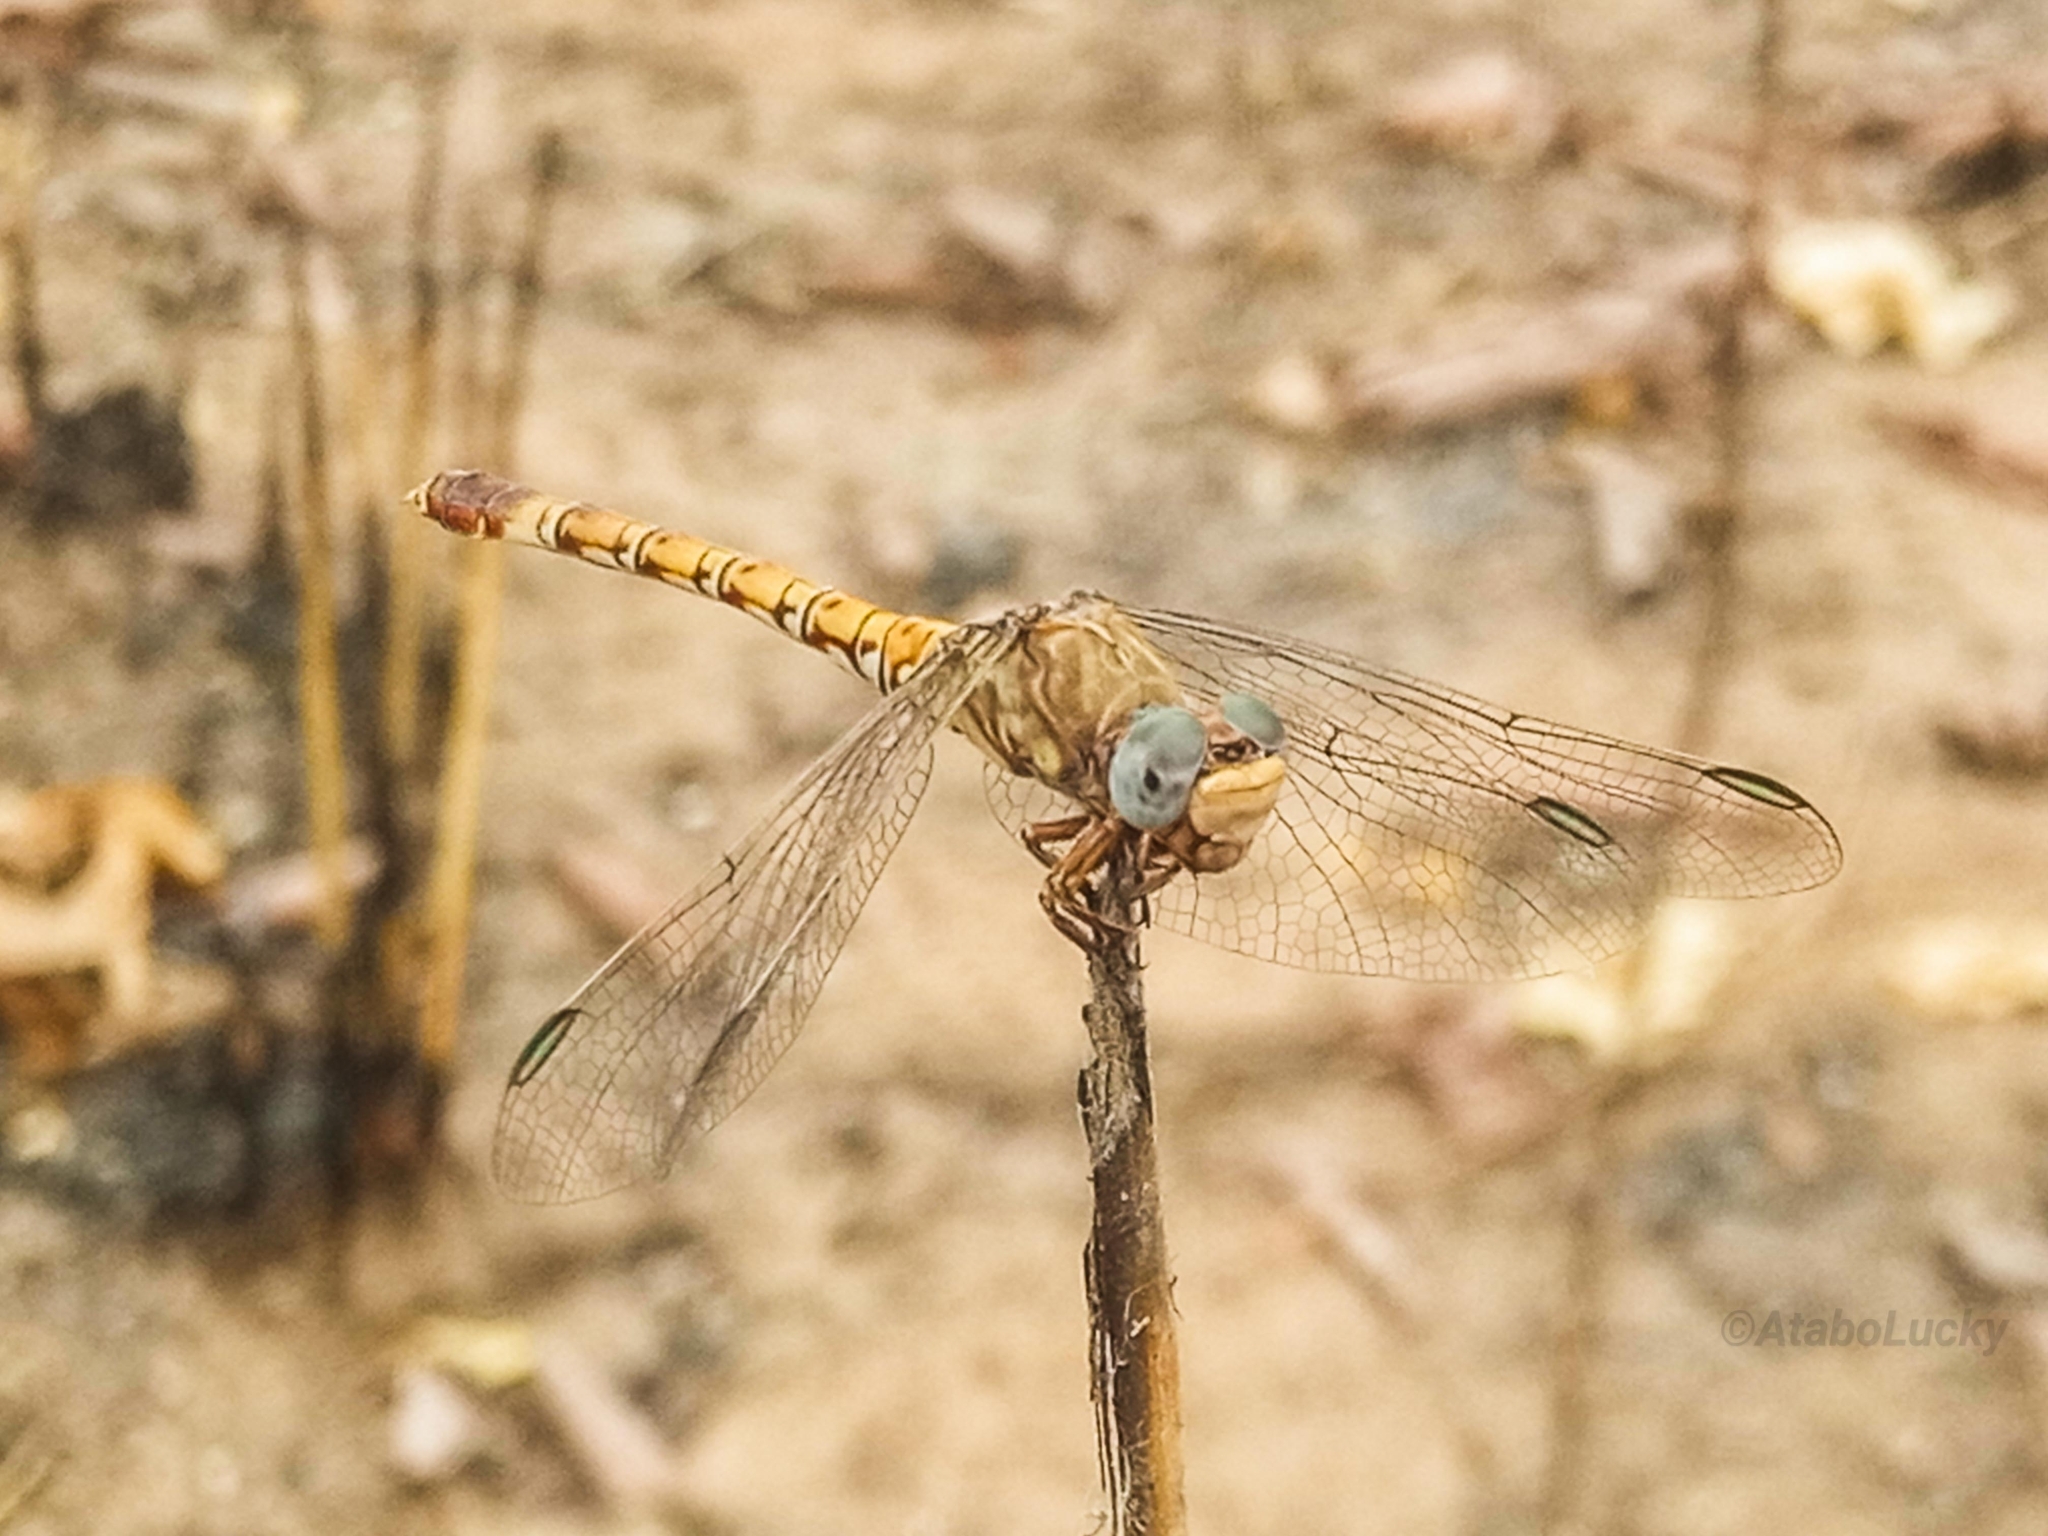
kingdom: Animalia
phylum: Arthropoda
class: Insecta
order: Odonata
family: Gomphidae
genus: Paragomphus
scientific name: Paragomphus genei
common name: Common hooktail
